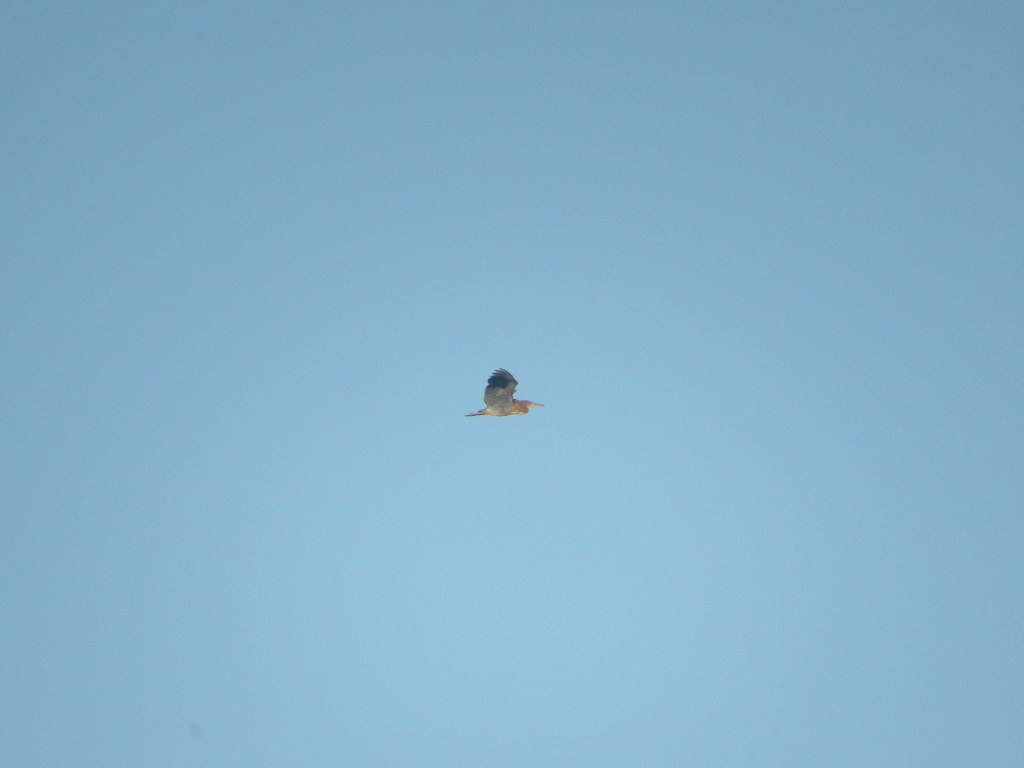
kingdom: Animalia
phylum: Chordata
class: Aves
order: Pelecaniformes
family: Ardeidae
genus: Tigrisoma
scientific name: Tigrisoma lineatum
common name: Rufescent tiger-heron
